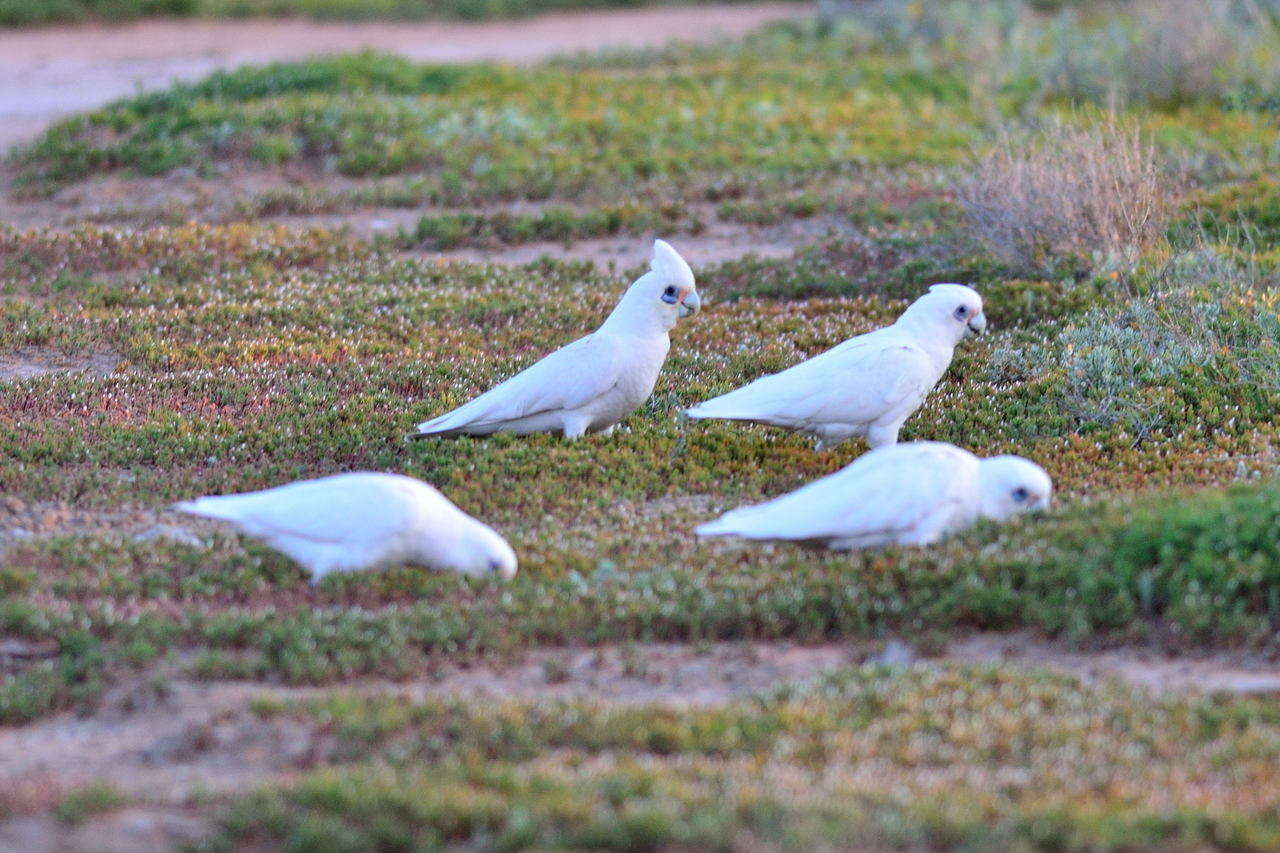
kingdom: Animalia
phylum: Chordata
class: Aves
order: Psittaciformes
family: Psittacidae
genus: Cacatua
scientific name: Cacatua sanguinea
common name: Little corella
